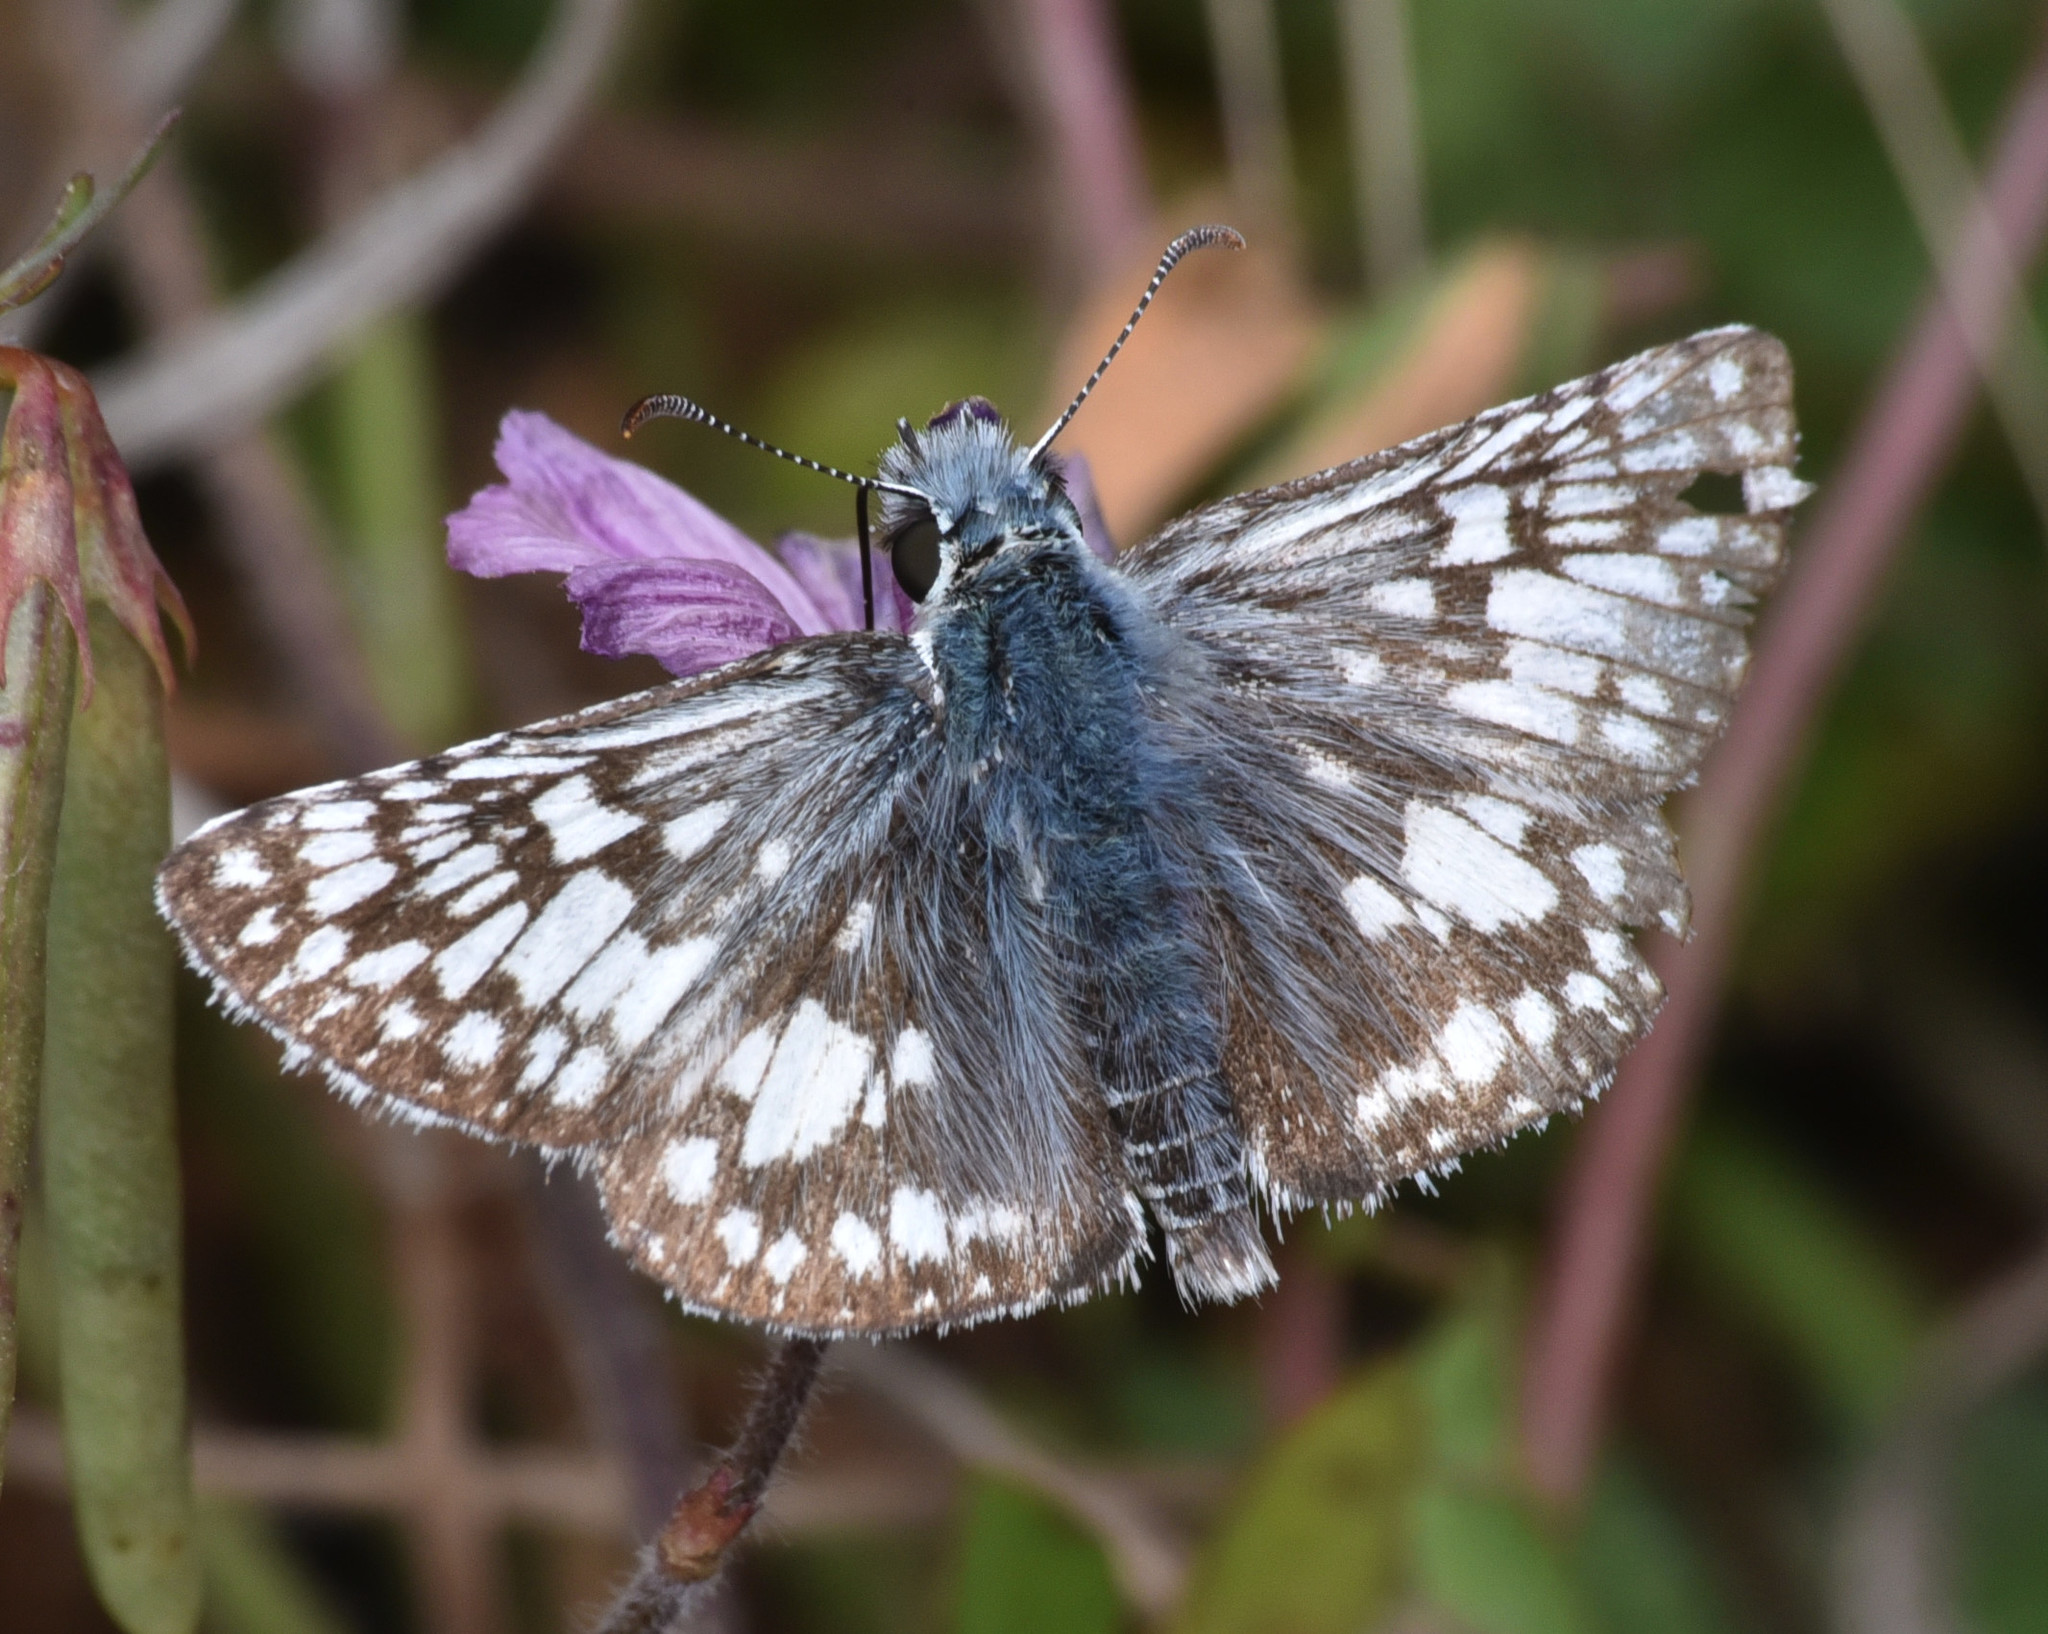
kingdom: Animalia
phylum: Arthropoda
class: Insecta
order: Lepidoptera
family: Hesperiidae
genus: Burnsius
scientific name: Burnsius communis
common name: Common checkered-skipper
